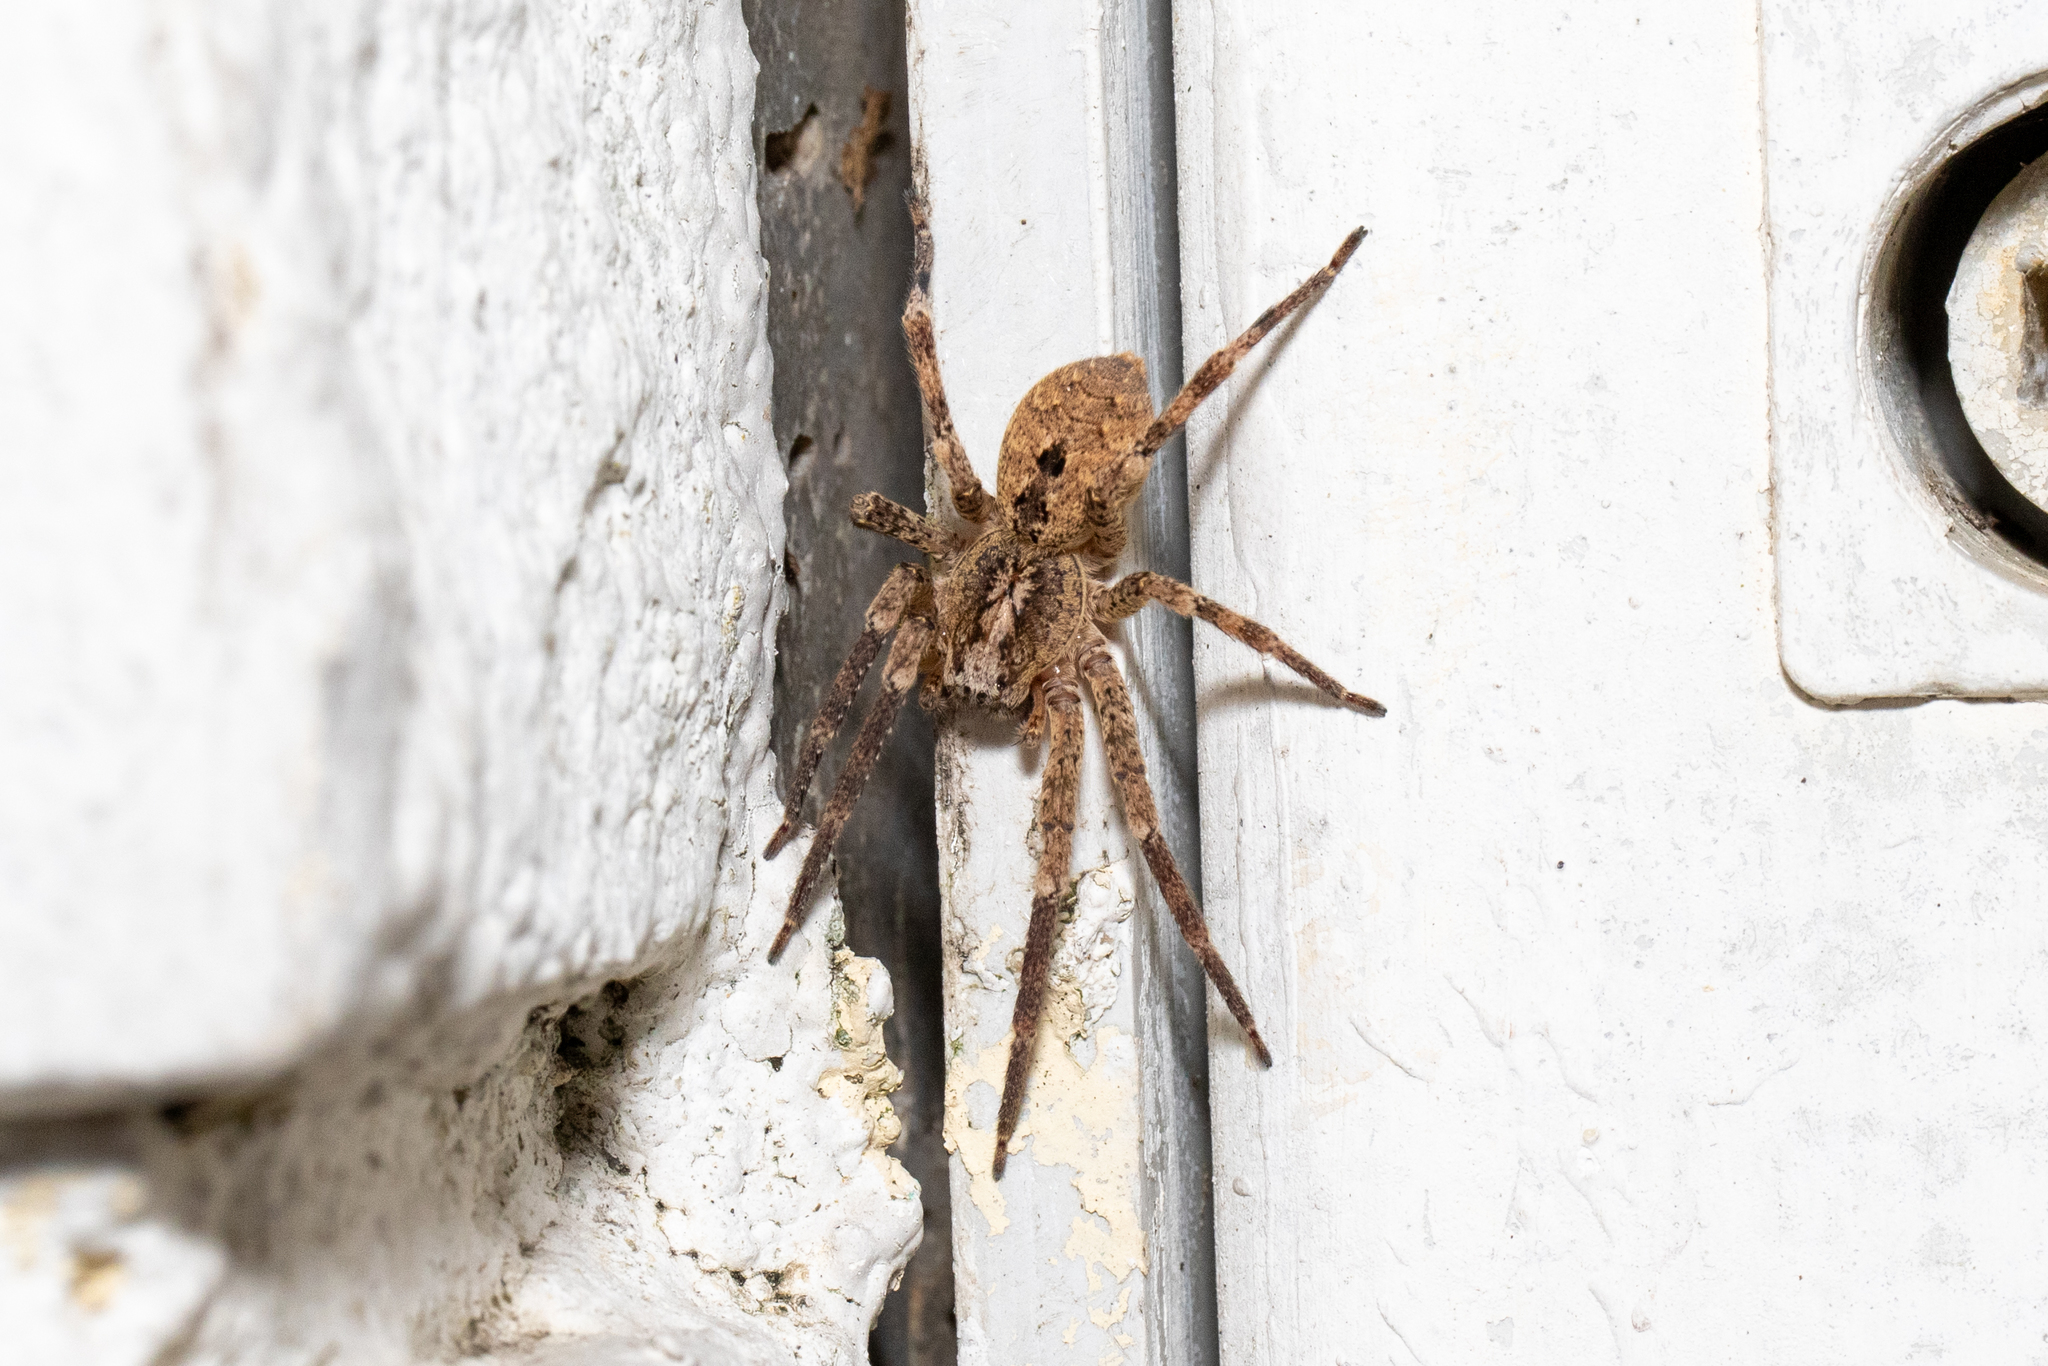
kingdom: Animalia
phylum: Arthropoda
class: Arachnida
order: Araneae
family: Zoropsidae
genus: Zoropsis
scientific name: Zoropsis spinimana
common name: Zoropsid spider
